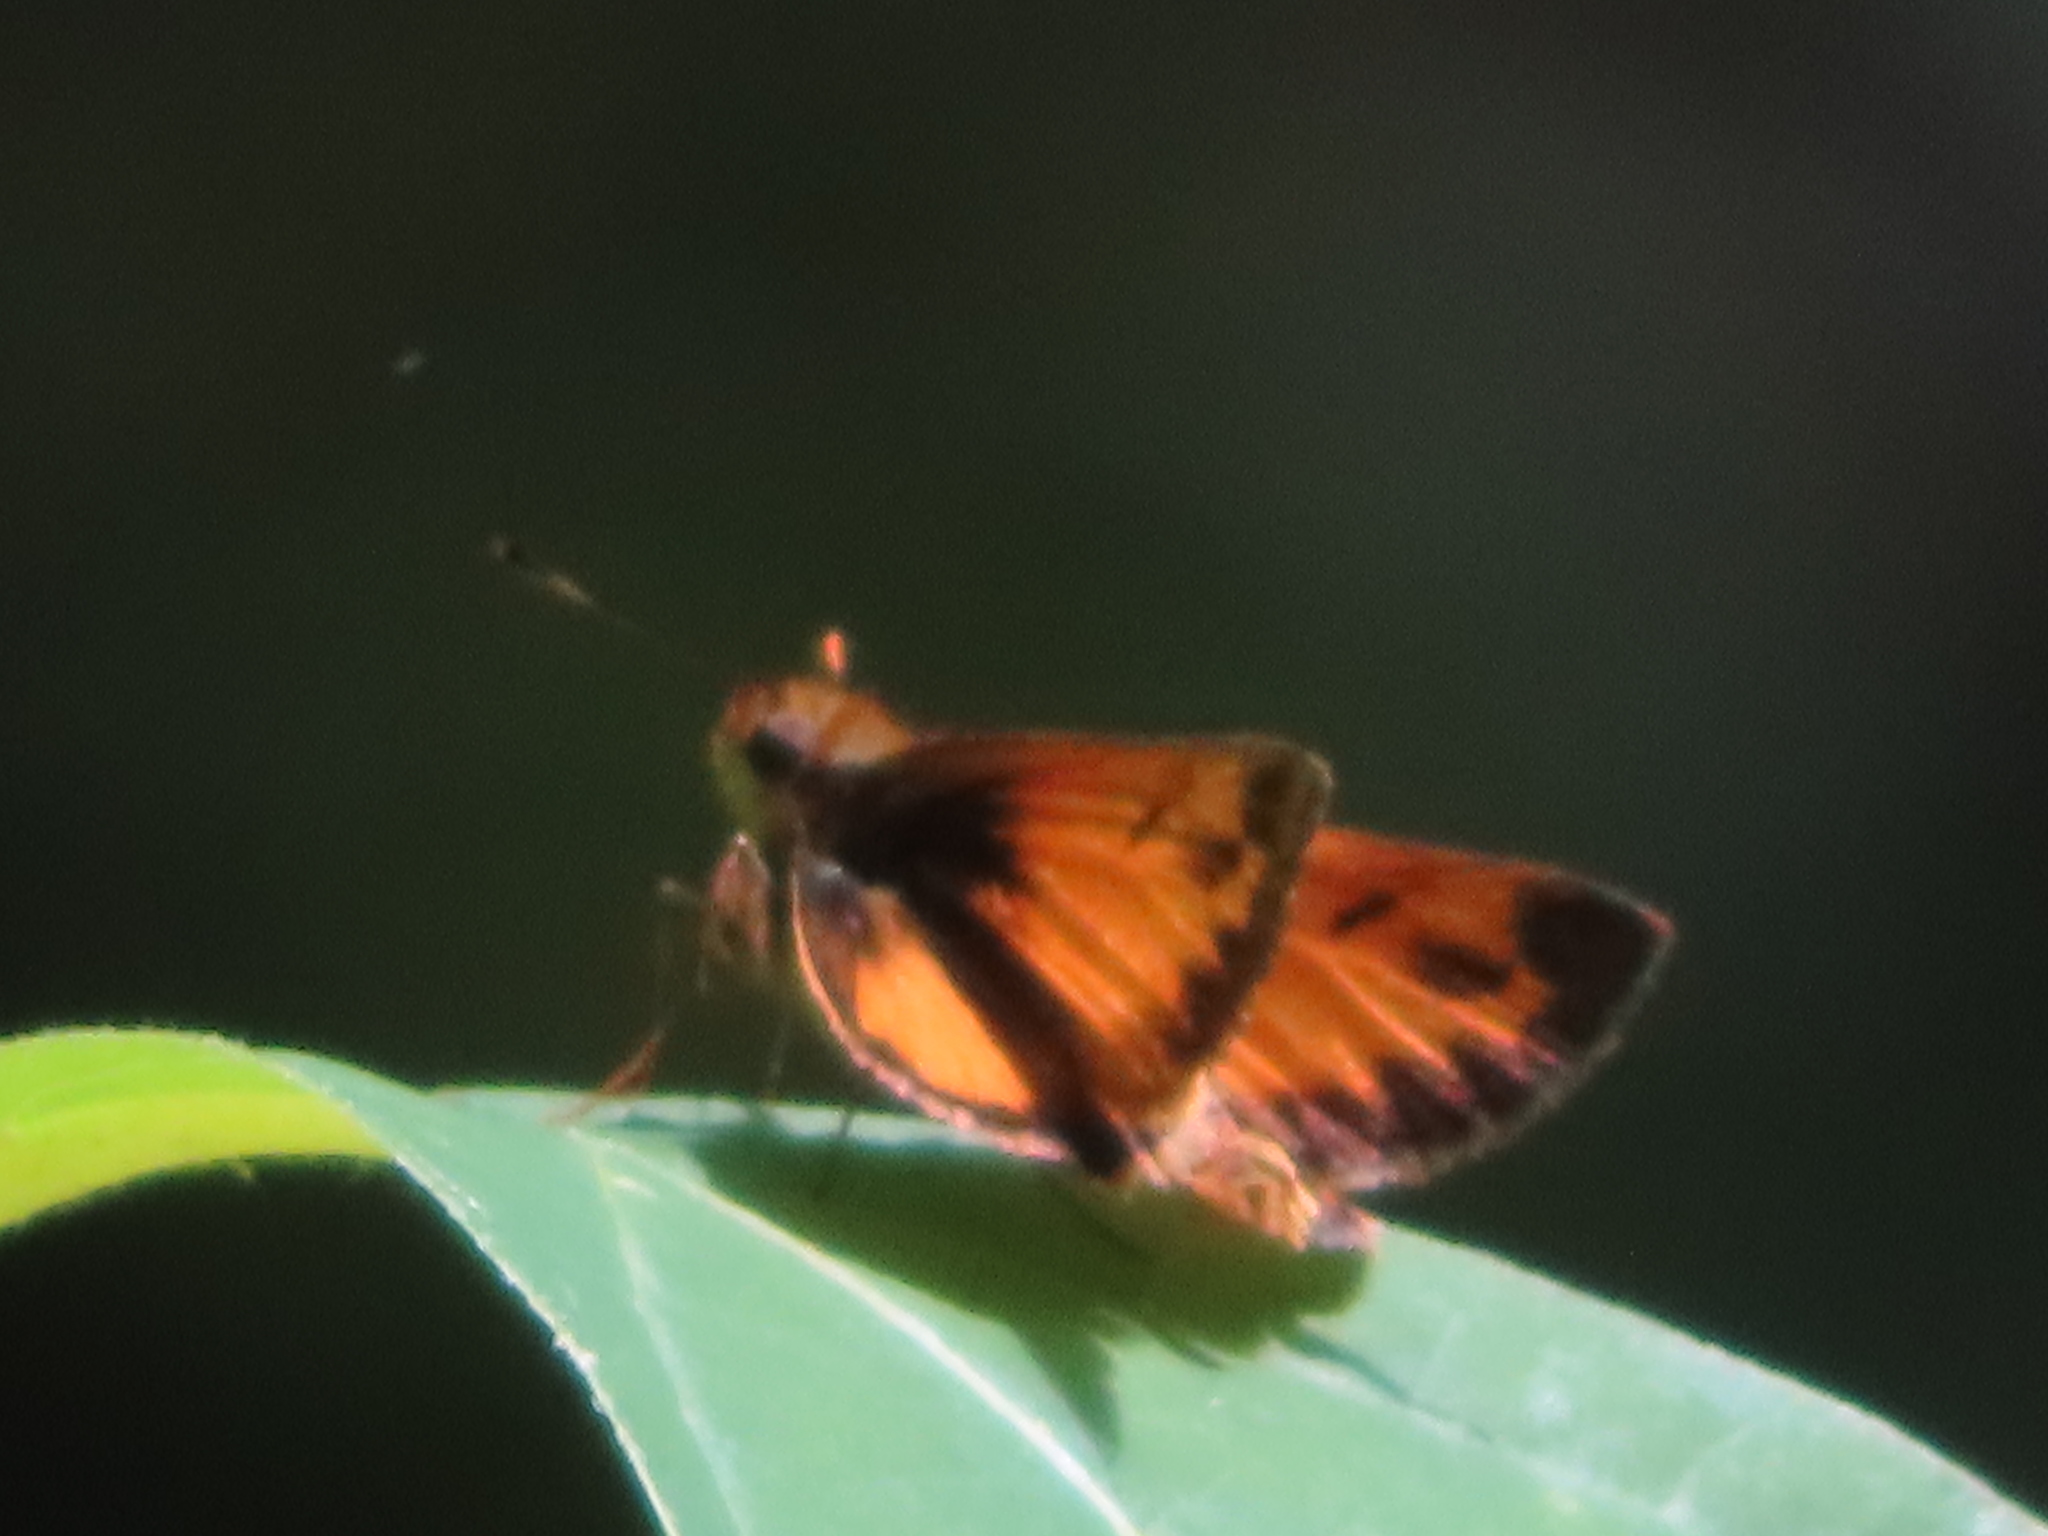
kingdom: Animalia
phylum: Arthropoda
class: Insecta
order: Lepidoptera
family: Hesperiidae
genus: Lon
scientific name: Lon zabulon
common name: Zabulon skipper
